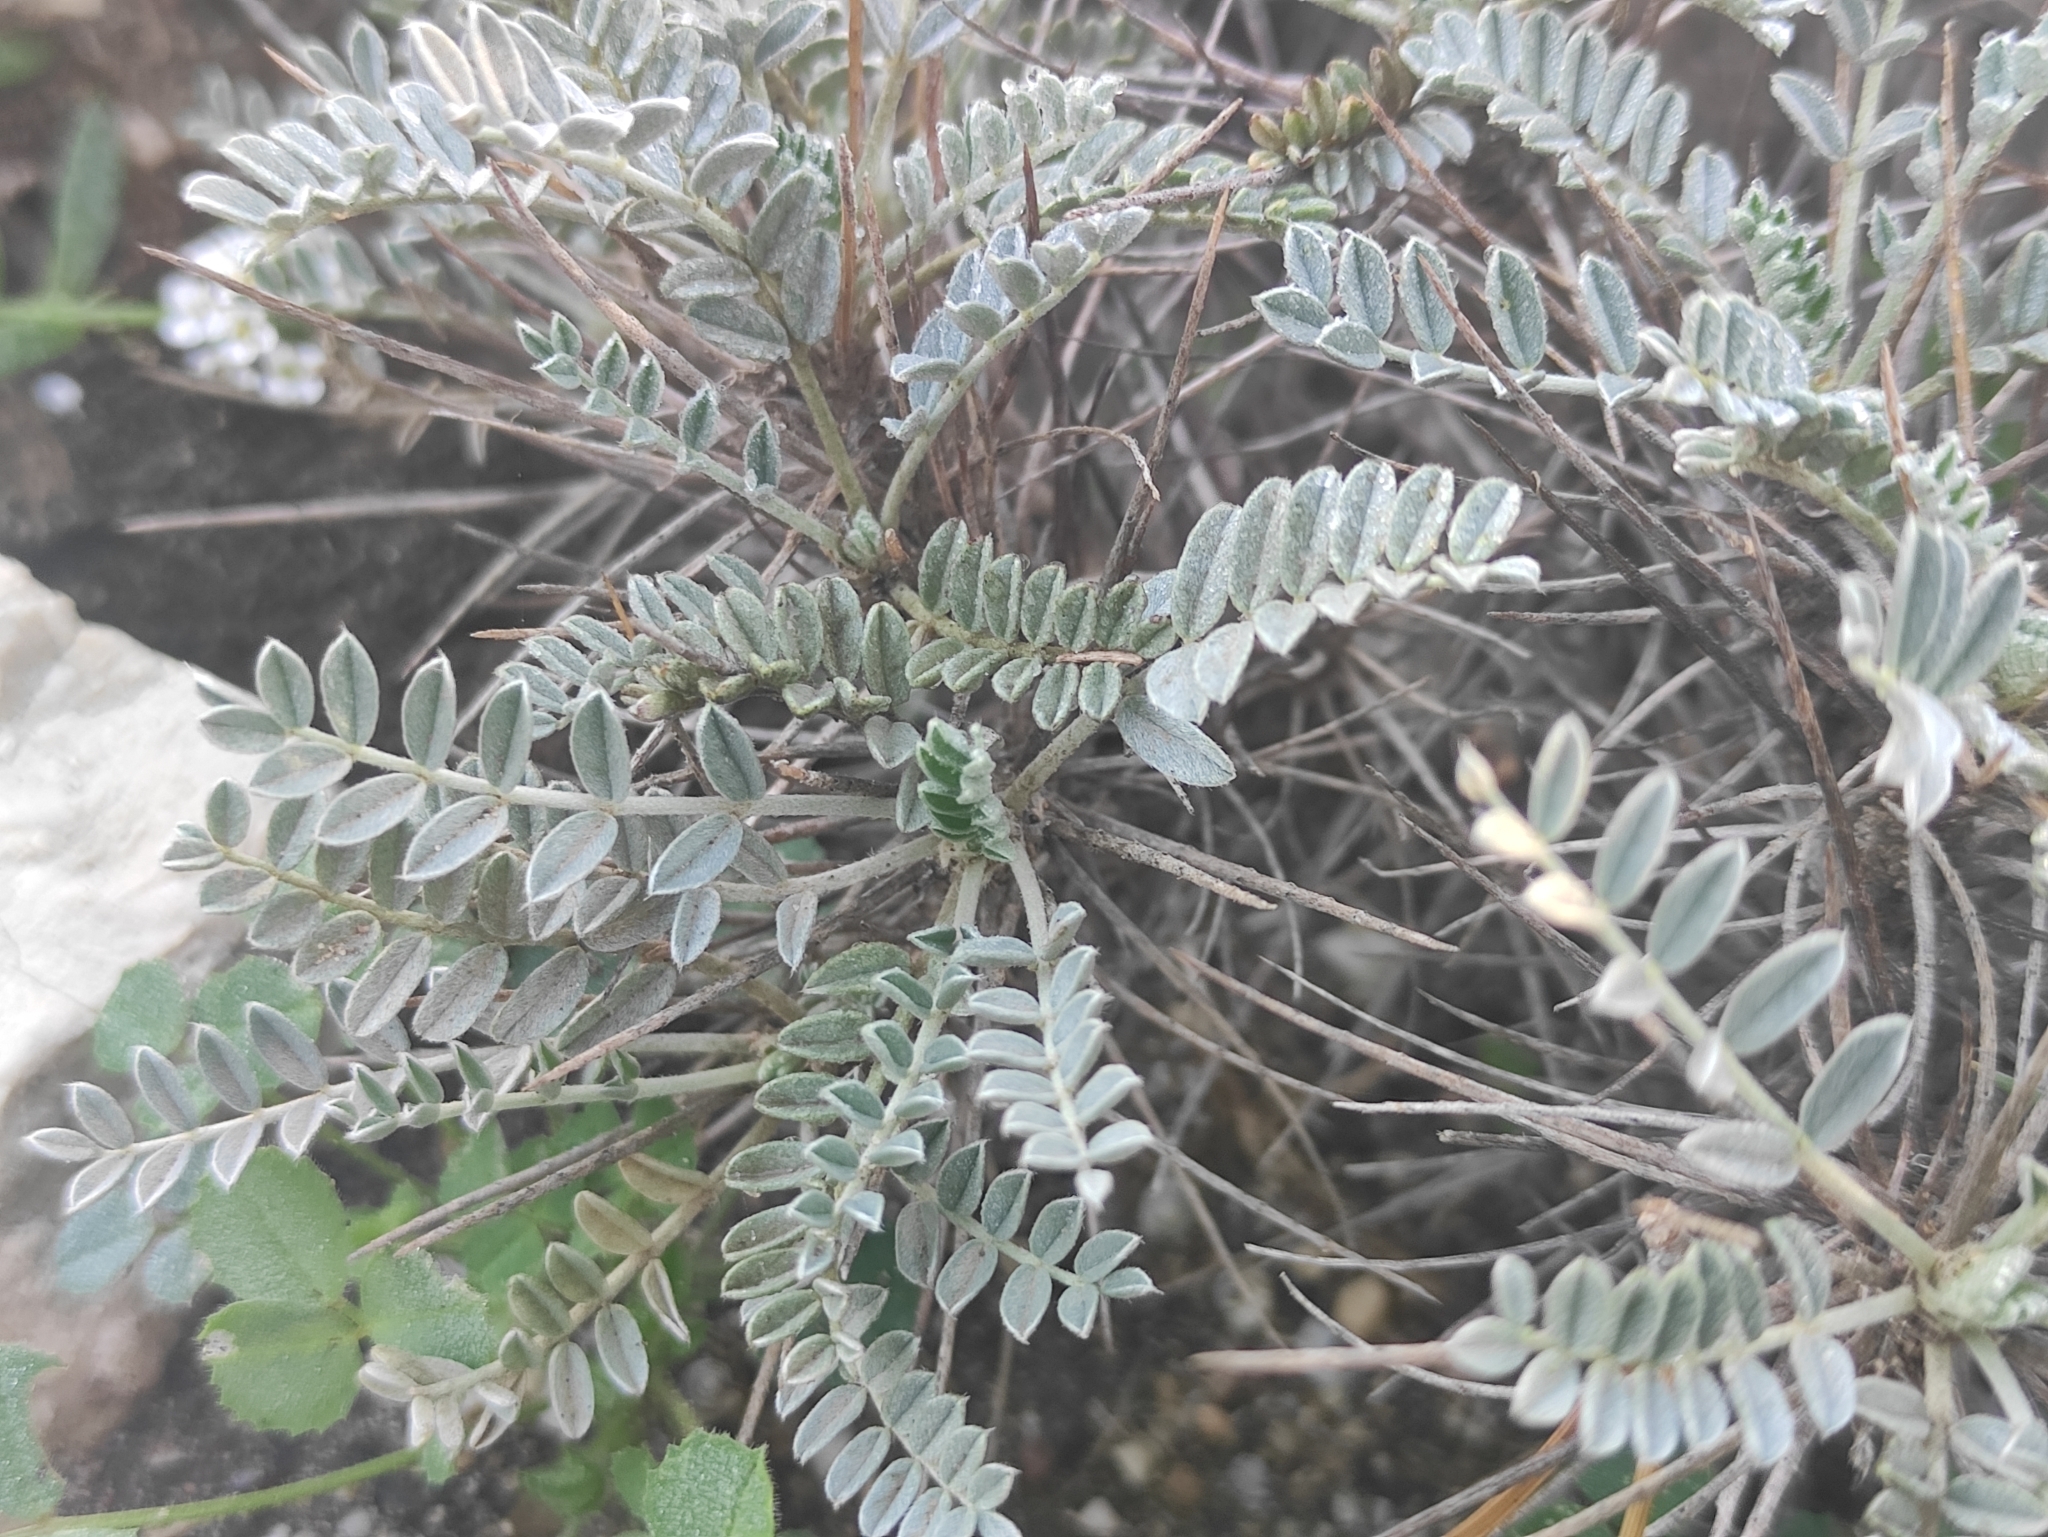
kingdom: Plantae
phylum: Tracheophyta
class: Magnoliopsida
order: Fabales
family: Fabaceae
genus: Astragalus
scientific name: Astragalus tragacantha
